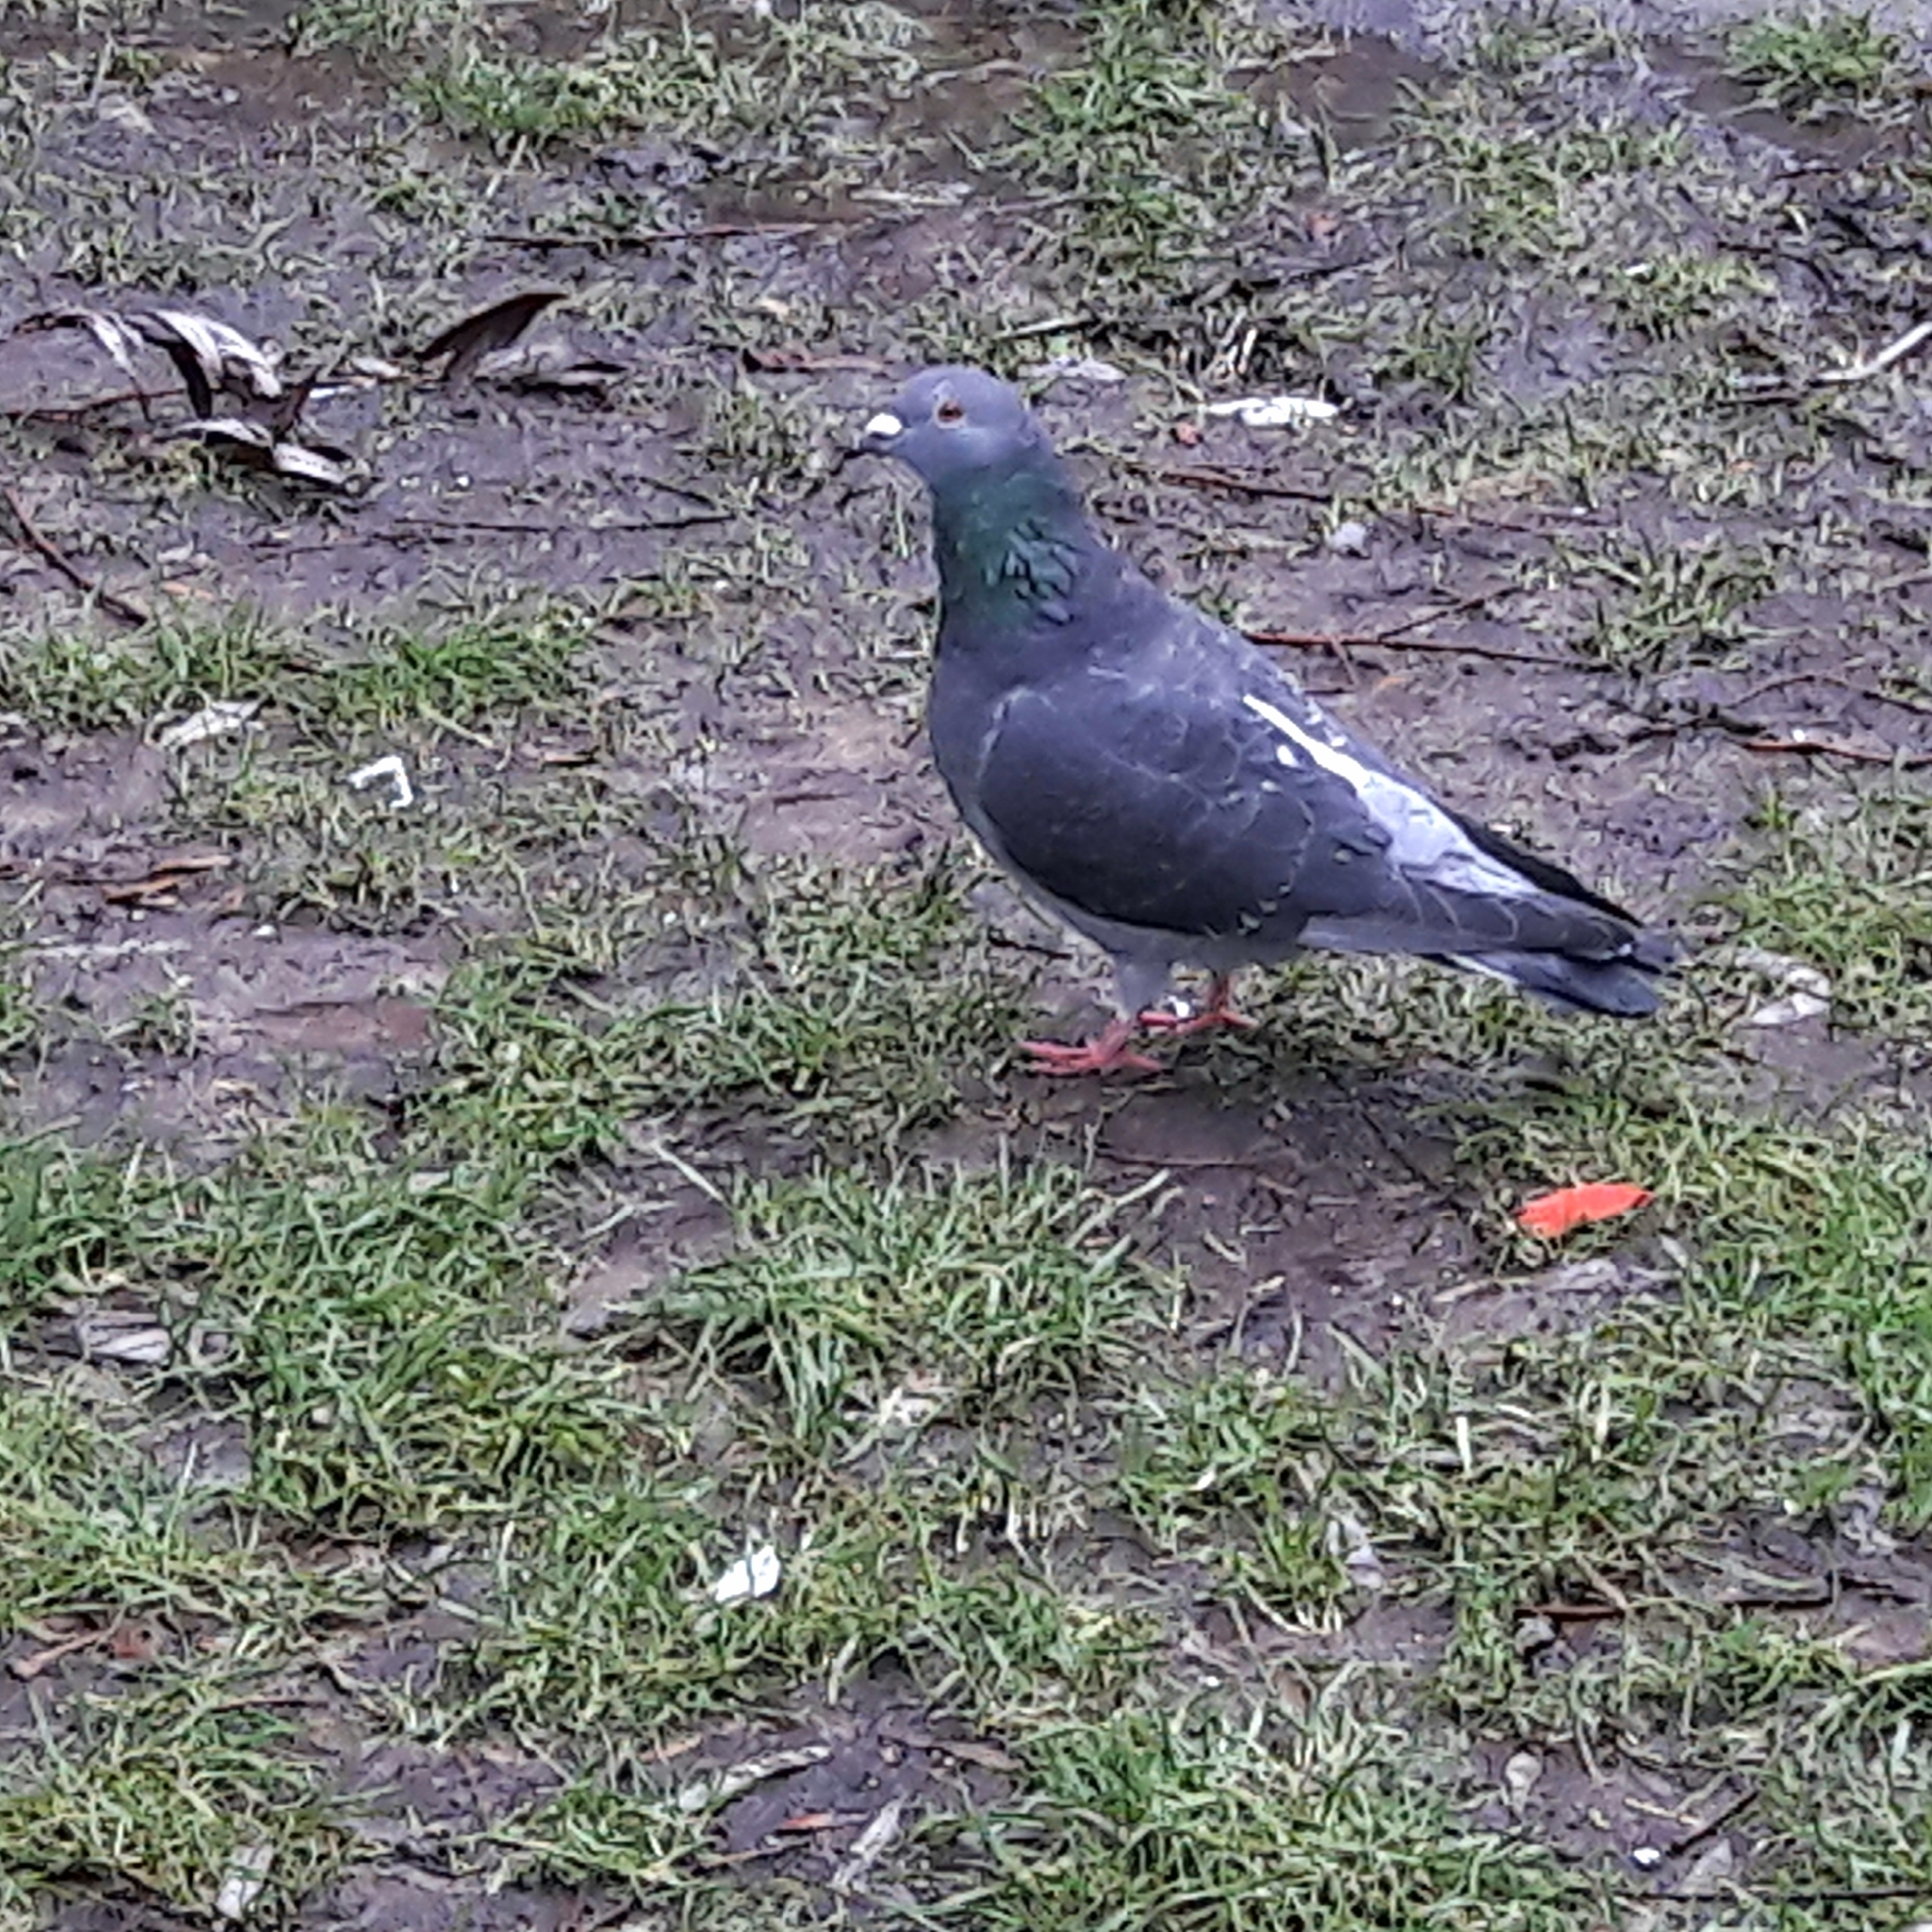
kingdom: Animalia
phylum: Chordata
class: Aves
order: Columbiformes
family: Columbidae
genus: Columba
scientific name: Columba livia
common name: Rock pigeon
